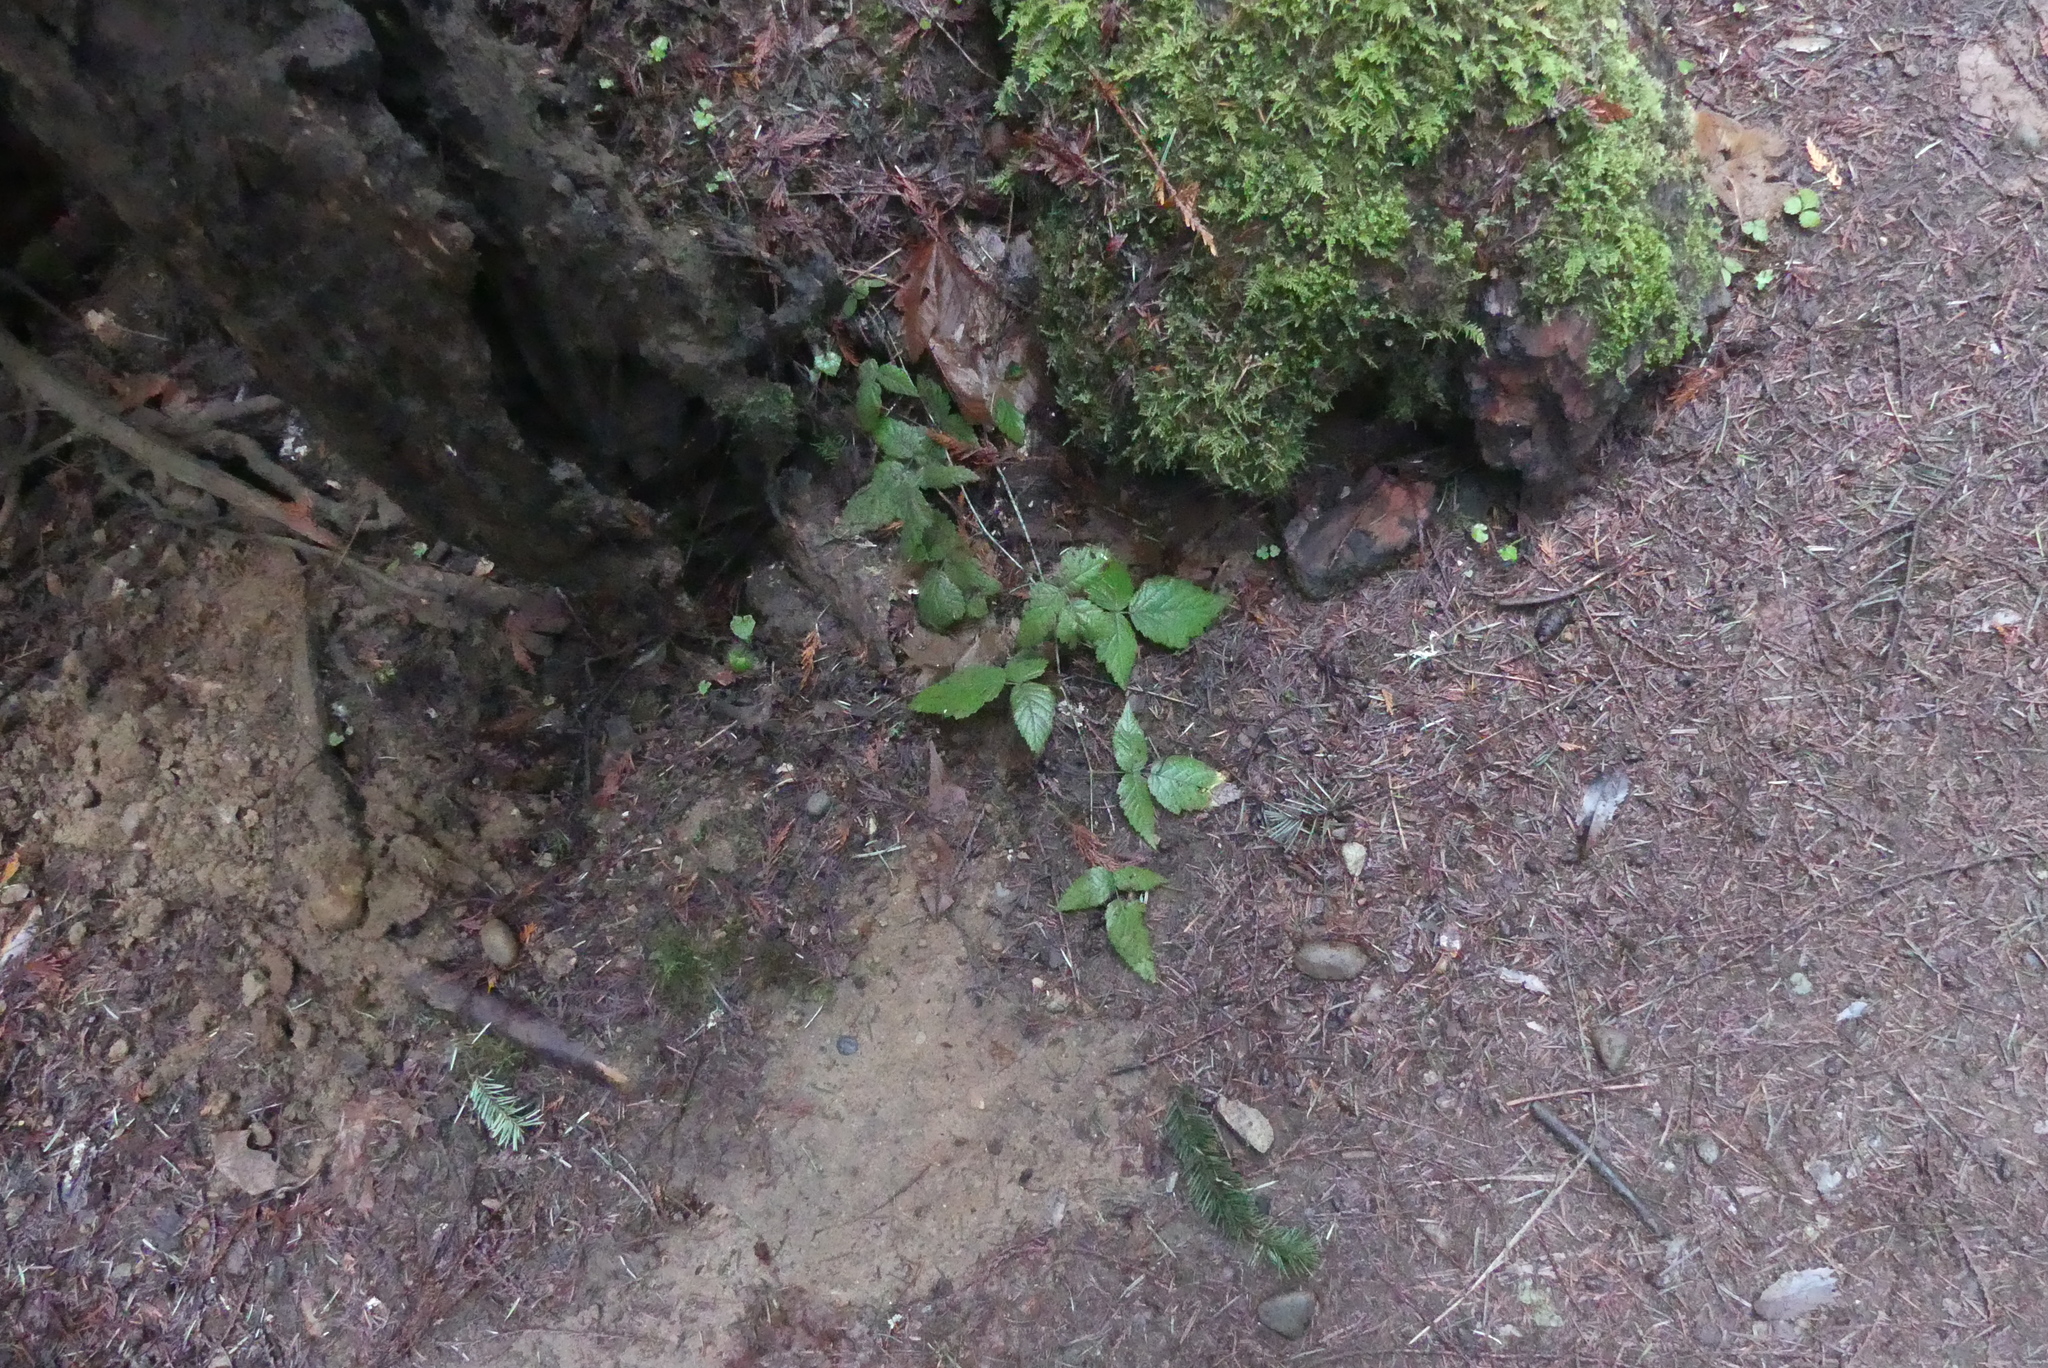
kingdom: Plantae
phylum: Tracheophyta
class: Magnoliopsida
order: Rosales
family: Rosaceae
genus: Rubus
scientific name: Rubus ursinus
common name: Pacific blackberry
